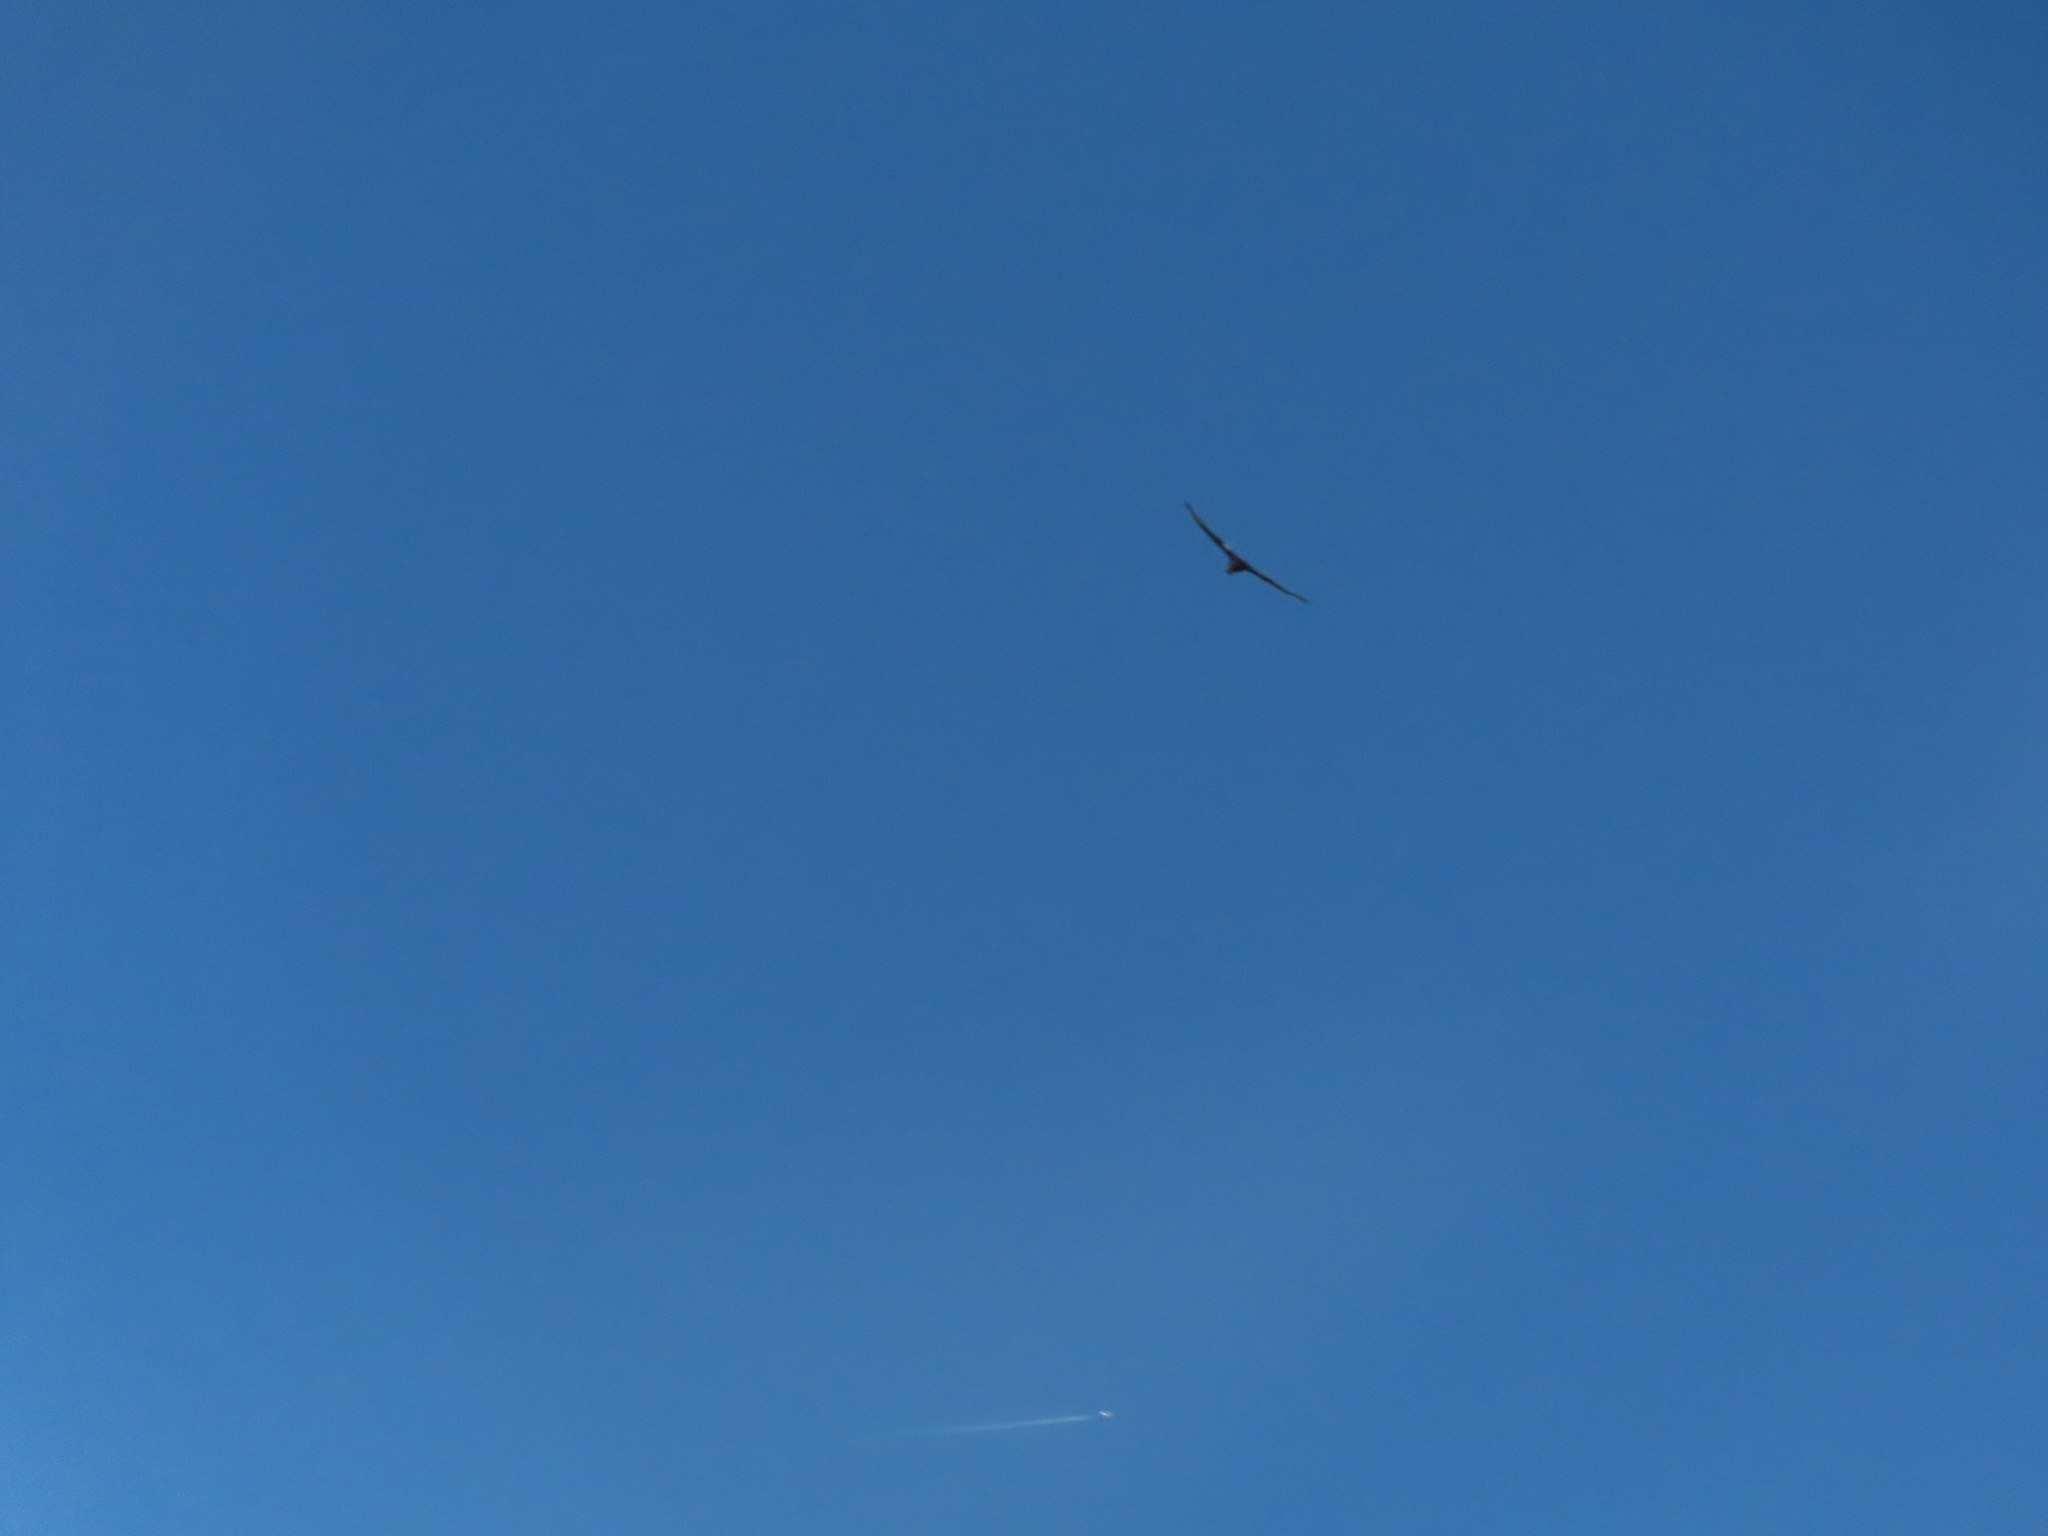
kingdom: Animalia
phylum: Chordata
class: Aves
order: Accipitriformes
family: Cathartidae
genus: Coragyps
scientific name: Coragyps atratus
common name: Black vulture
